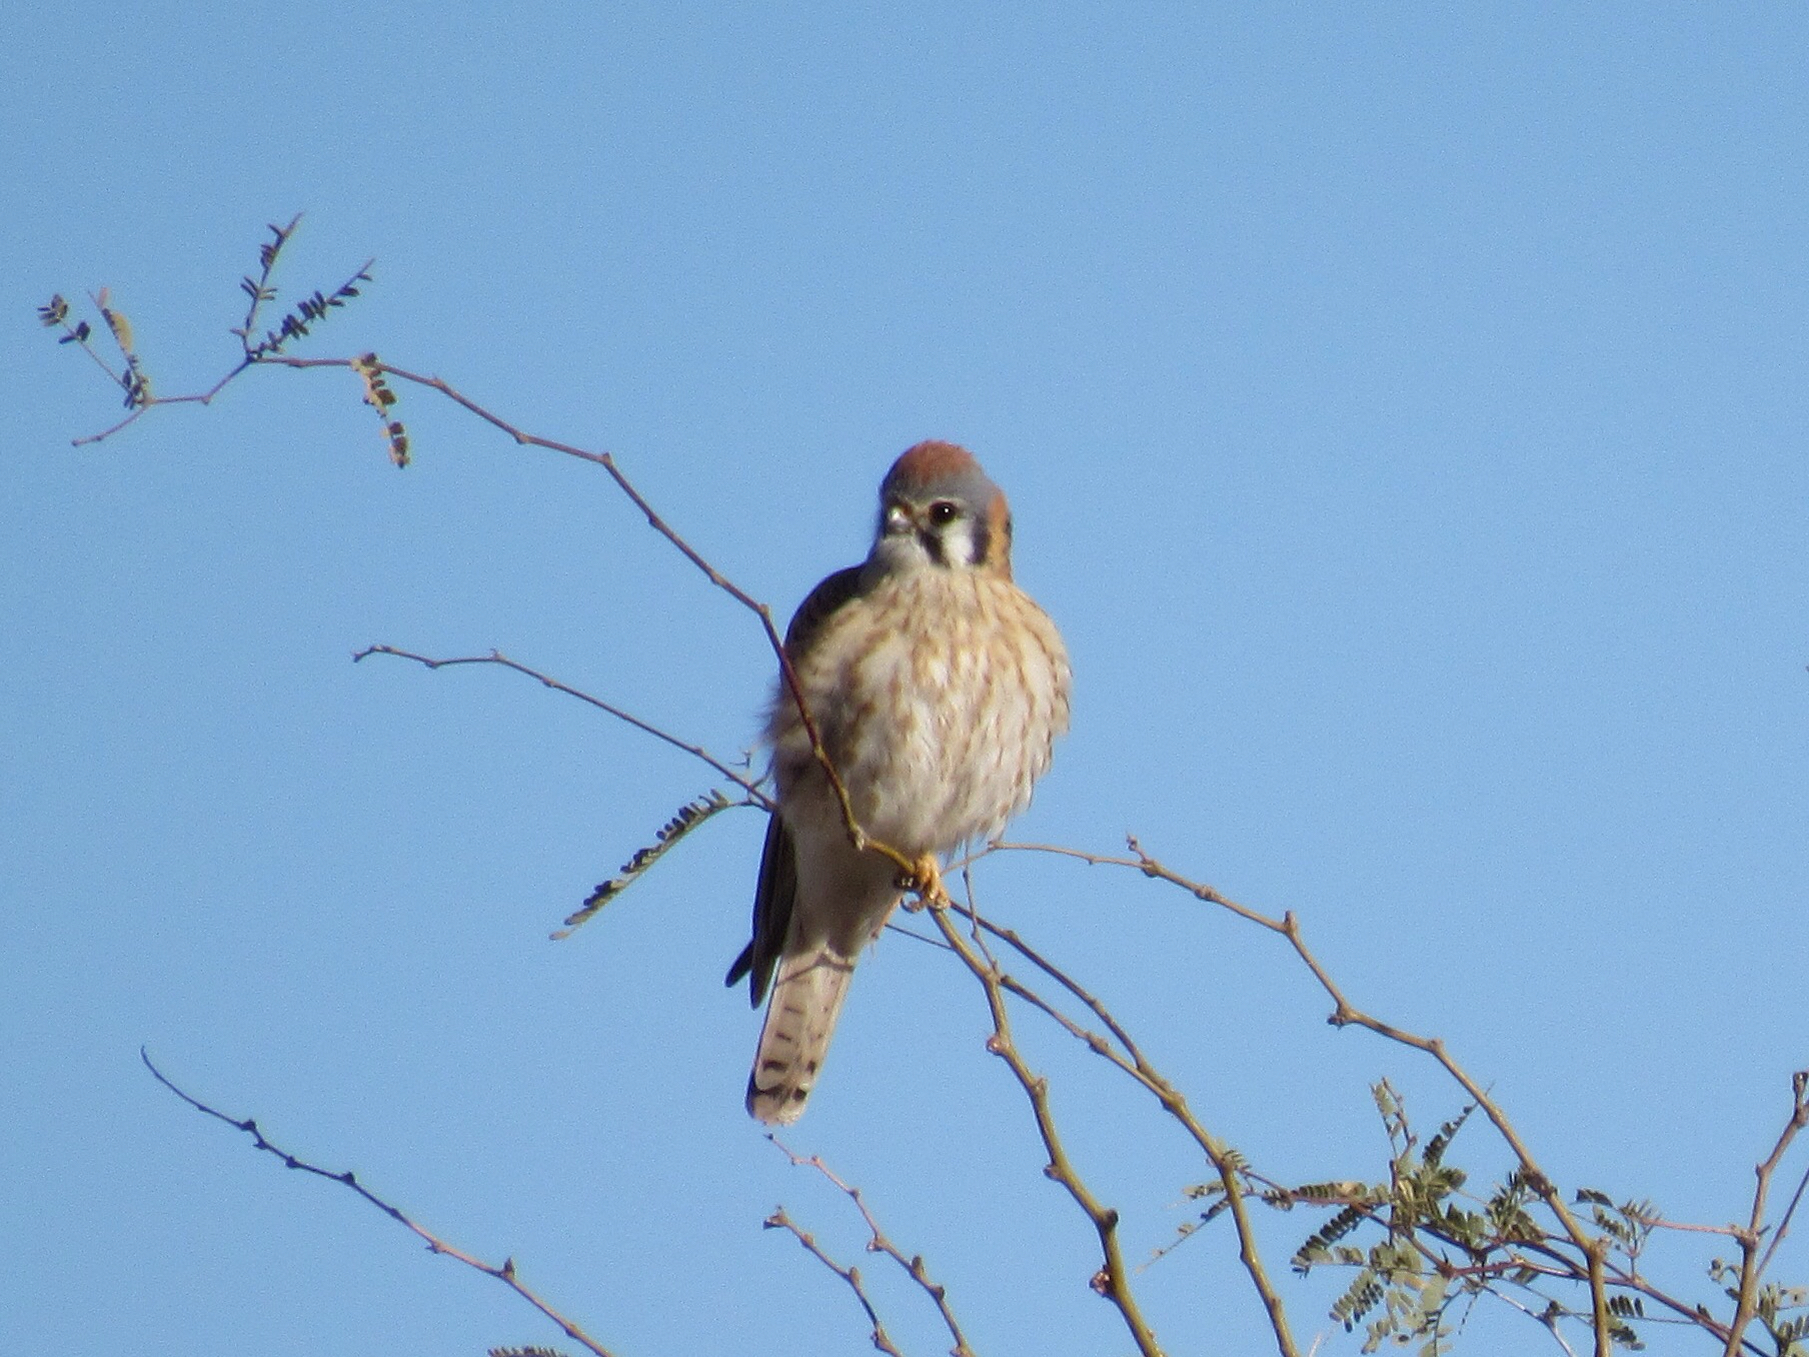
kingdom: Animalia
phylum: Chordata
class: Aves
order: Falconiformes
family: Falconidae
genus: Falco
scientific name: Falco sparverius
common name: American kestrel
